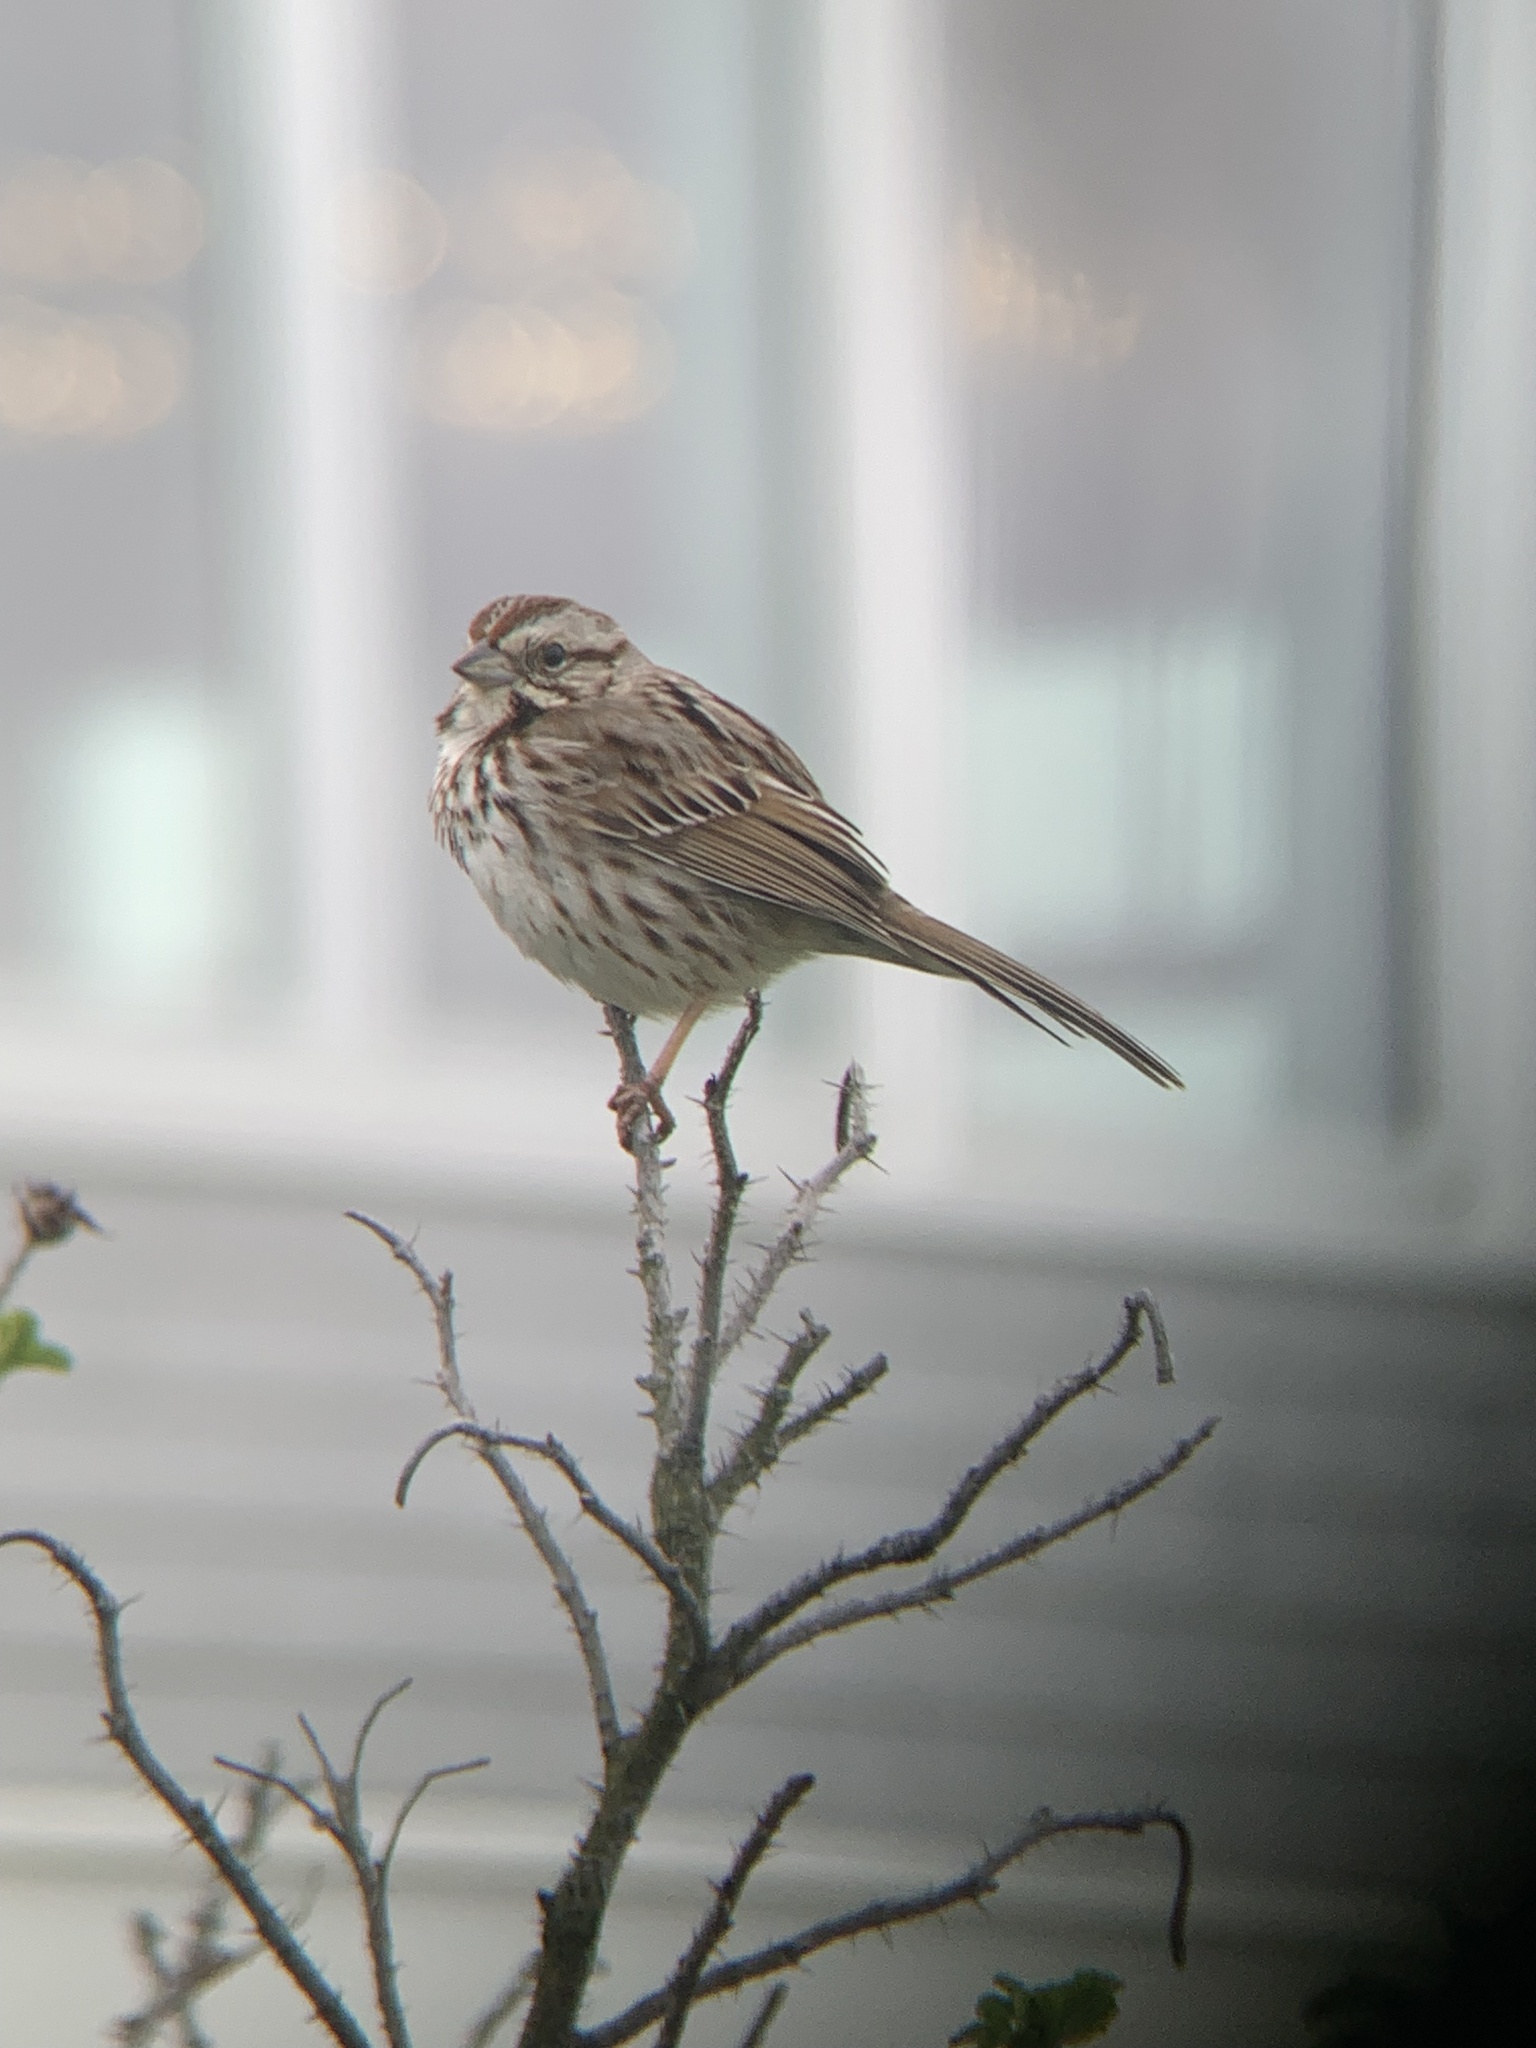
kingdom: Animalia
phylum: Chordata
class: Aves
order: Passeriformes
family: Passerellidae
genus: Melospiza
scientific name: Melospiza melodia
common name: Song sparrow
